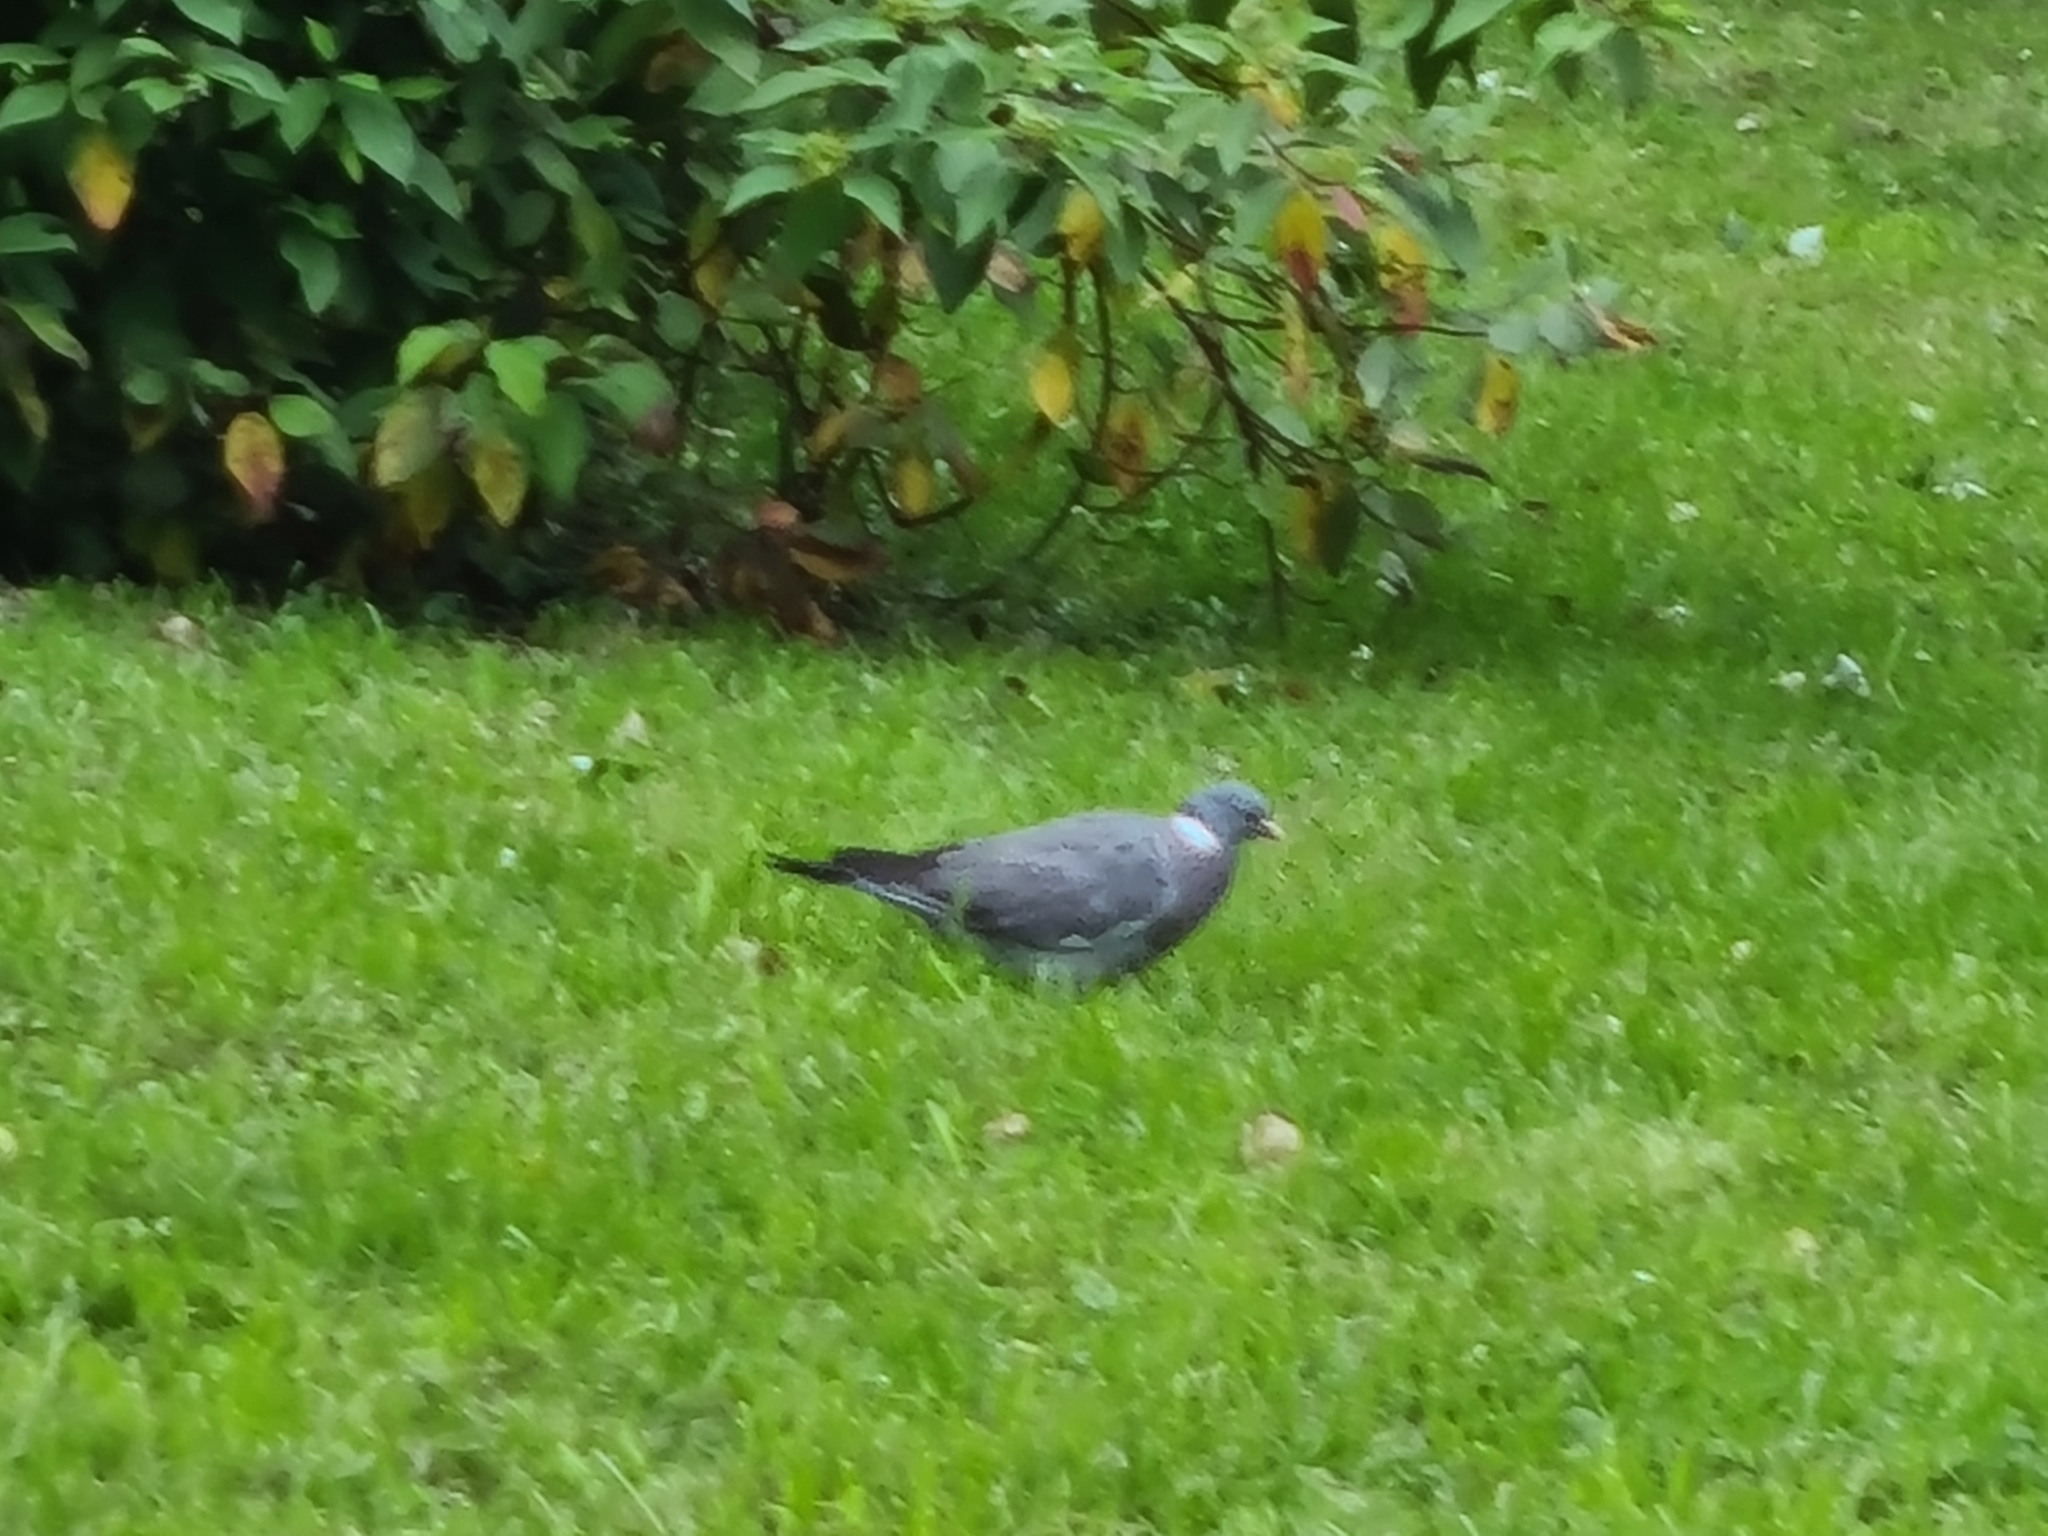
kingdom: Animalia
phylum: Chordata
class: Aves
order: Columbiformes
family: Columbidae
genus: Columba
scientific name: Columba palumbus
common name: Common wood pigeon
